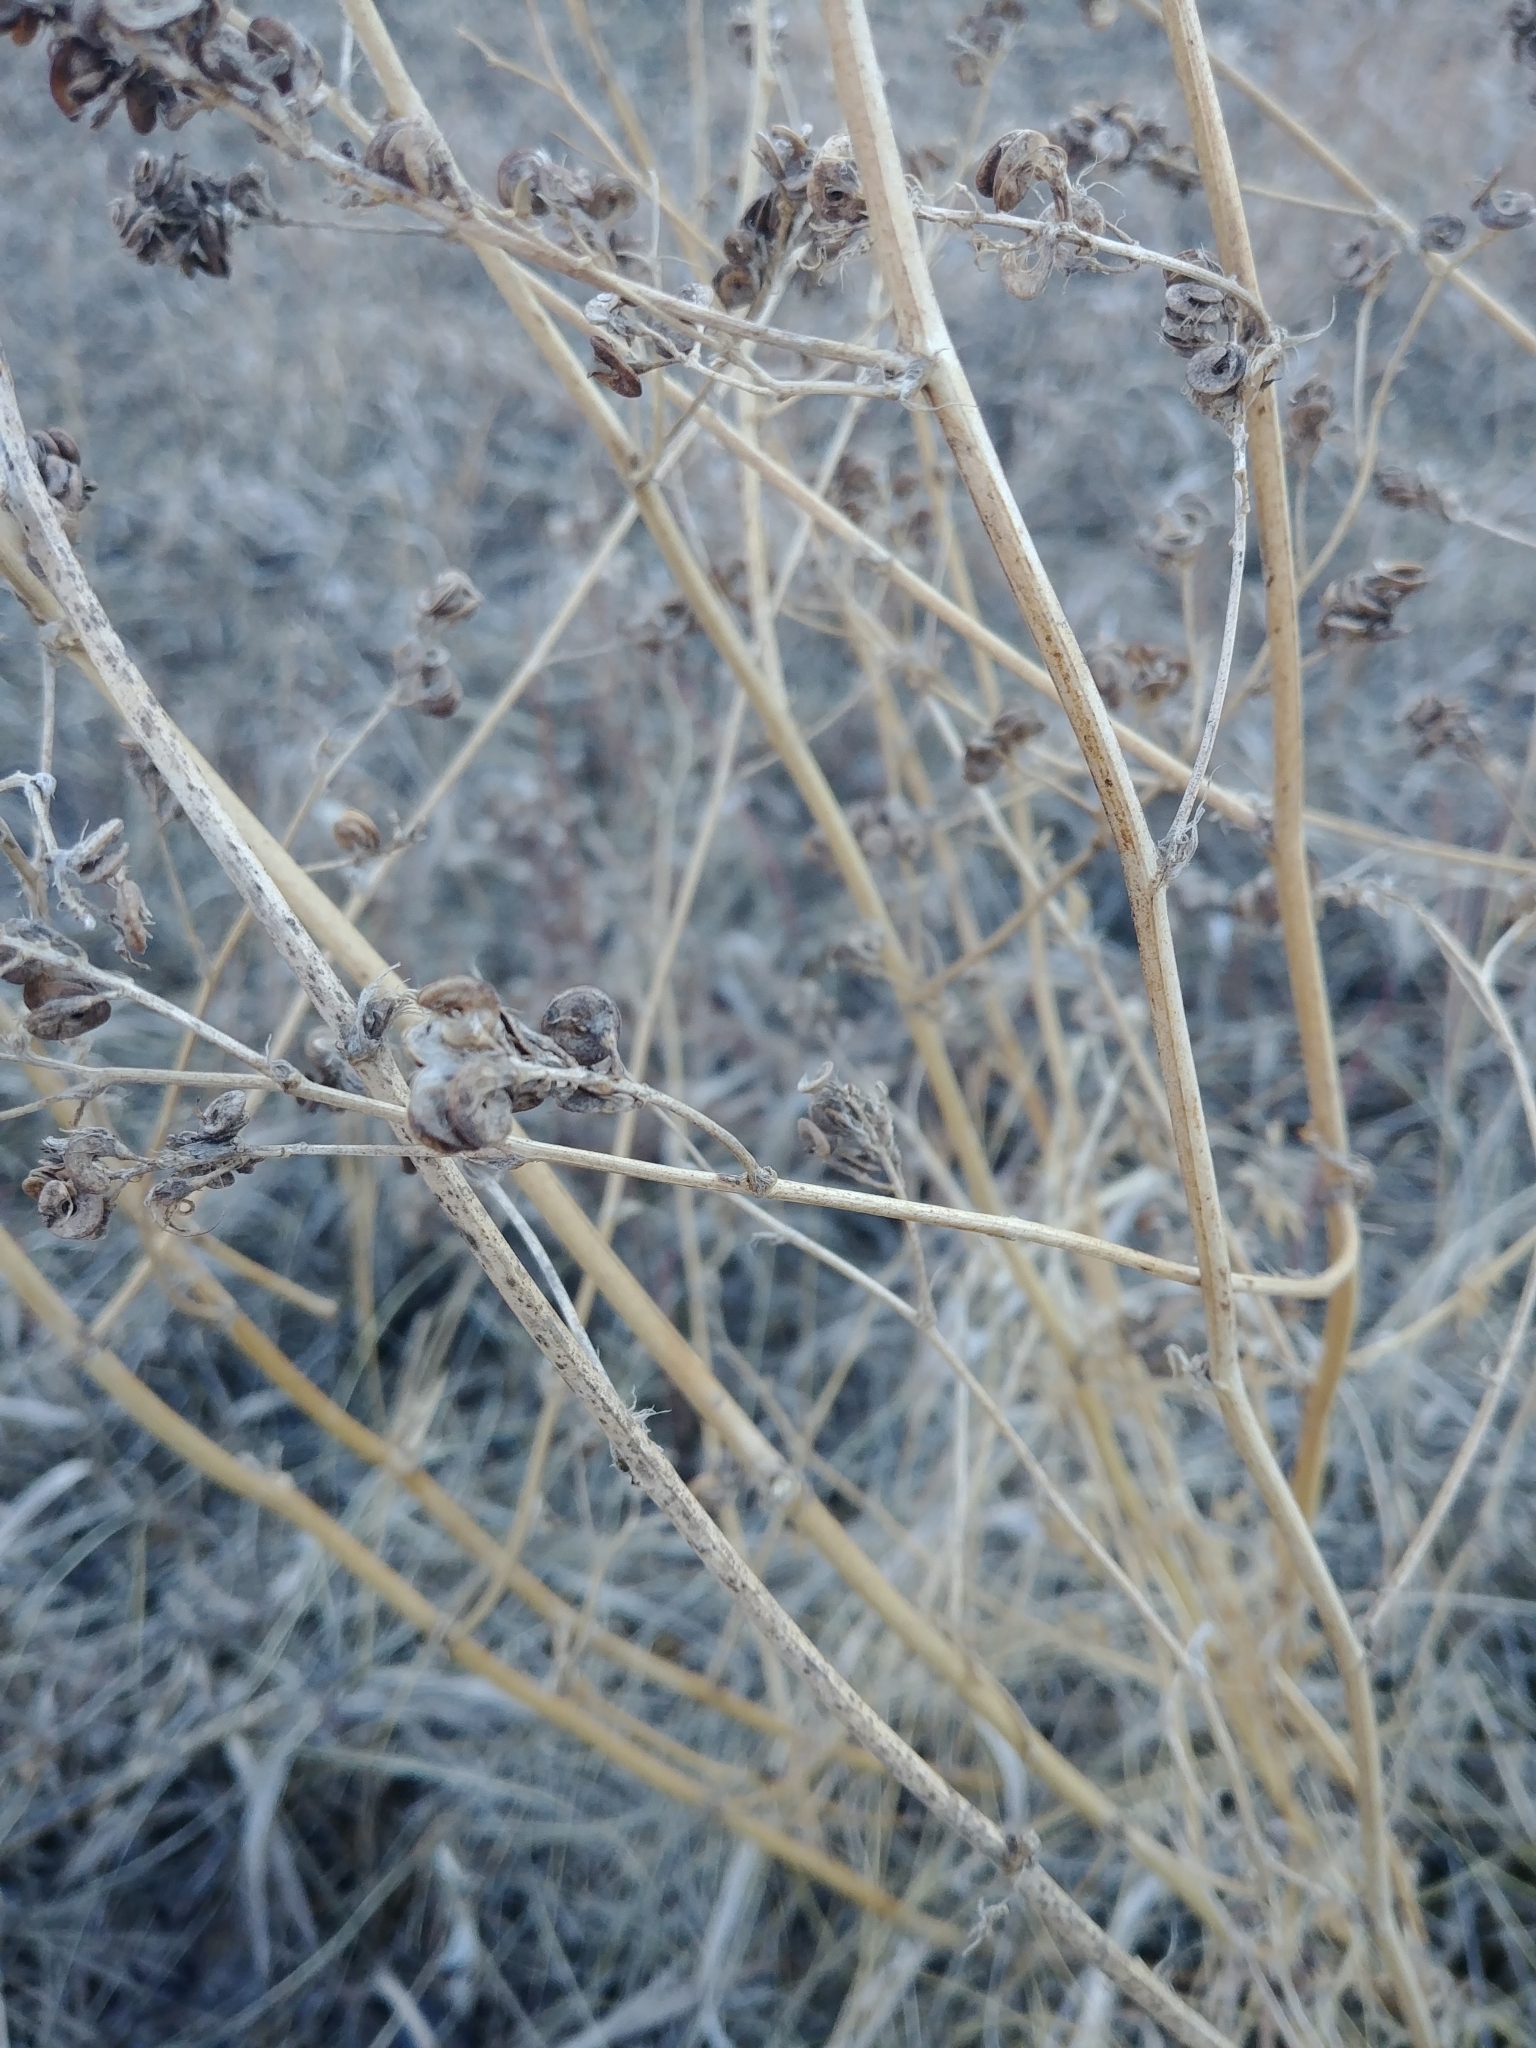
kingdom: Plantae
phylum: Tracheophyta
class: Magnoliopsida
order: Fabales
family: Fabaceae
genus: Medicago
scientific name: Medicago sativa
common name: Alfalfa
